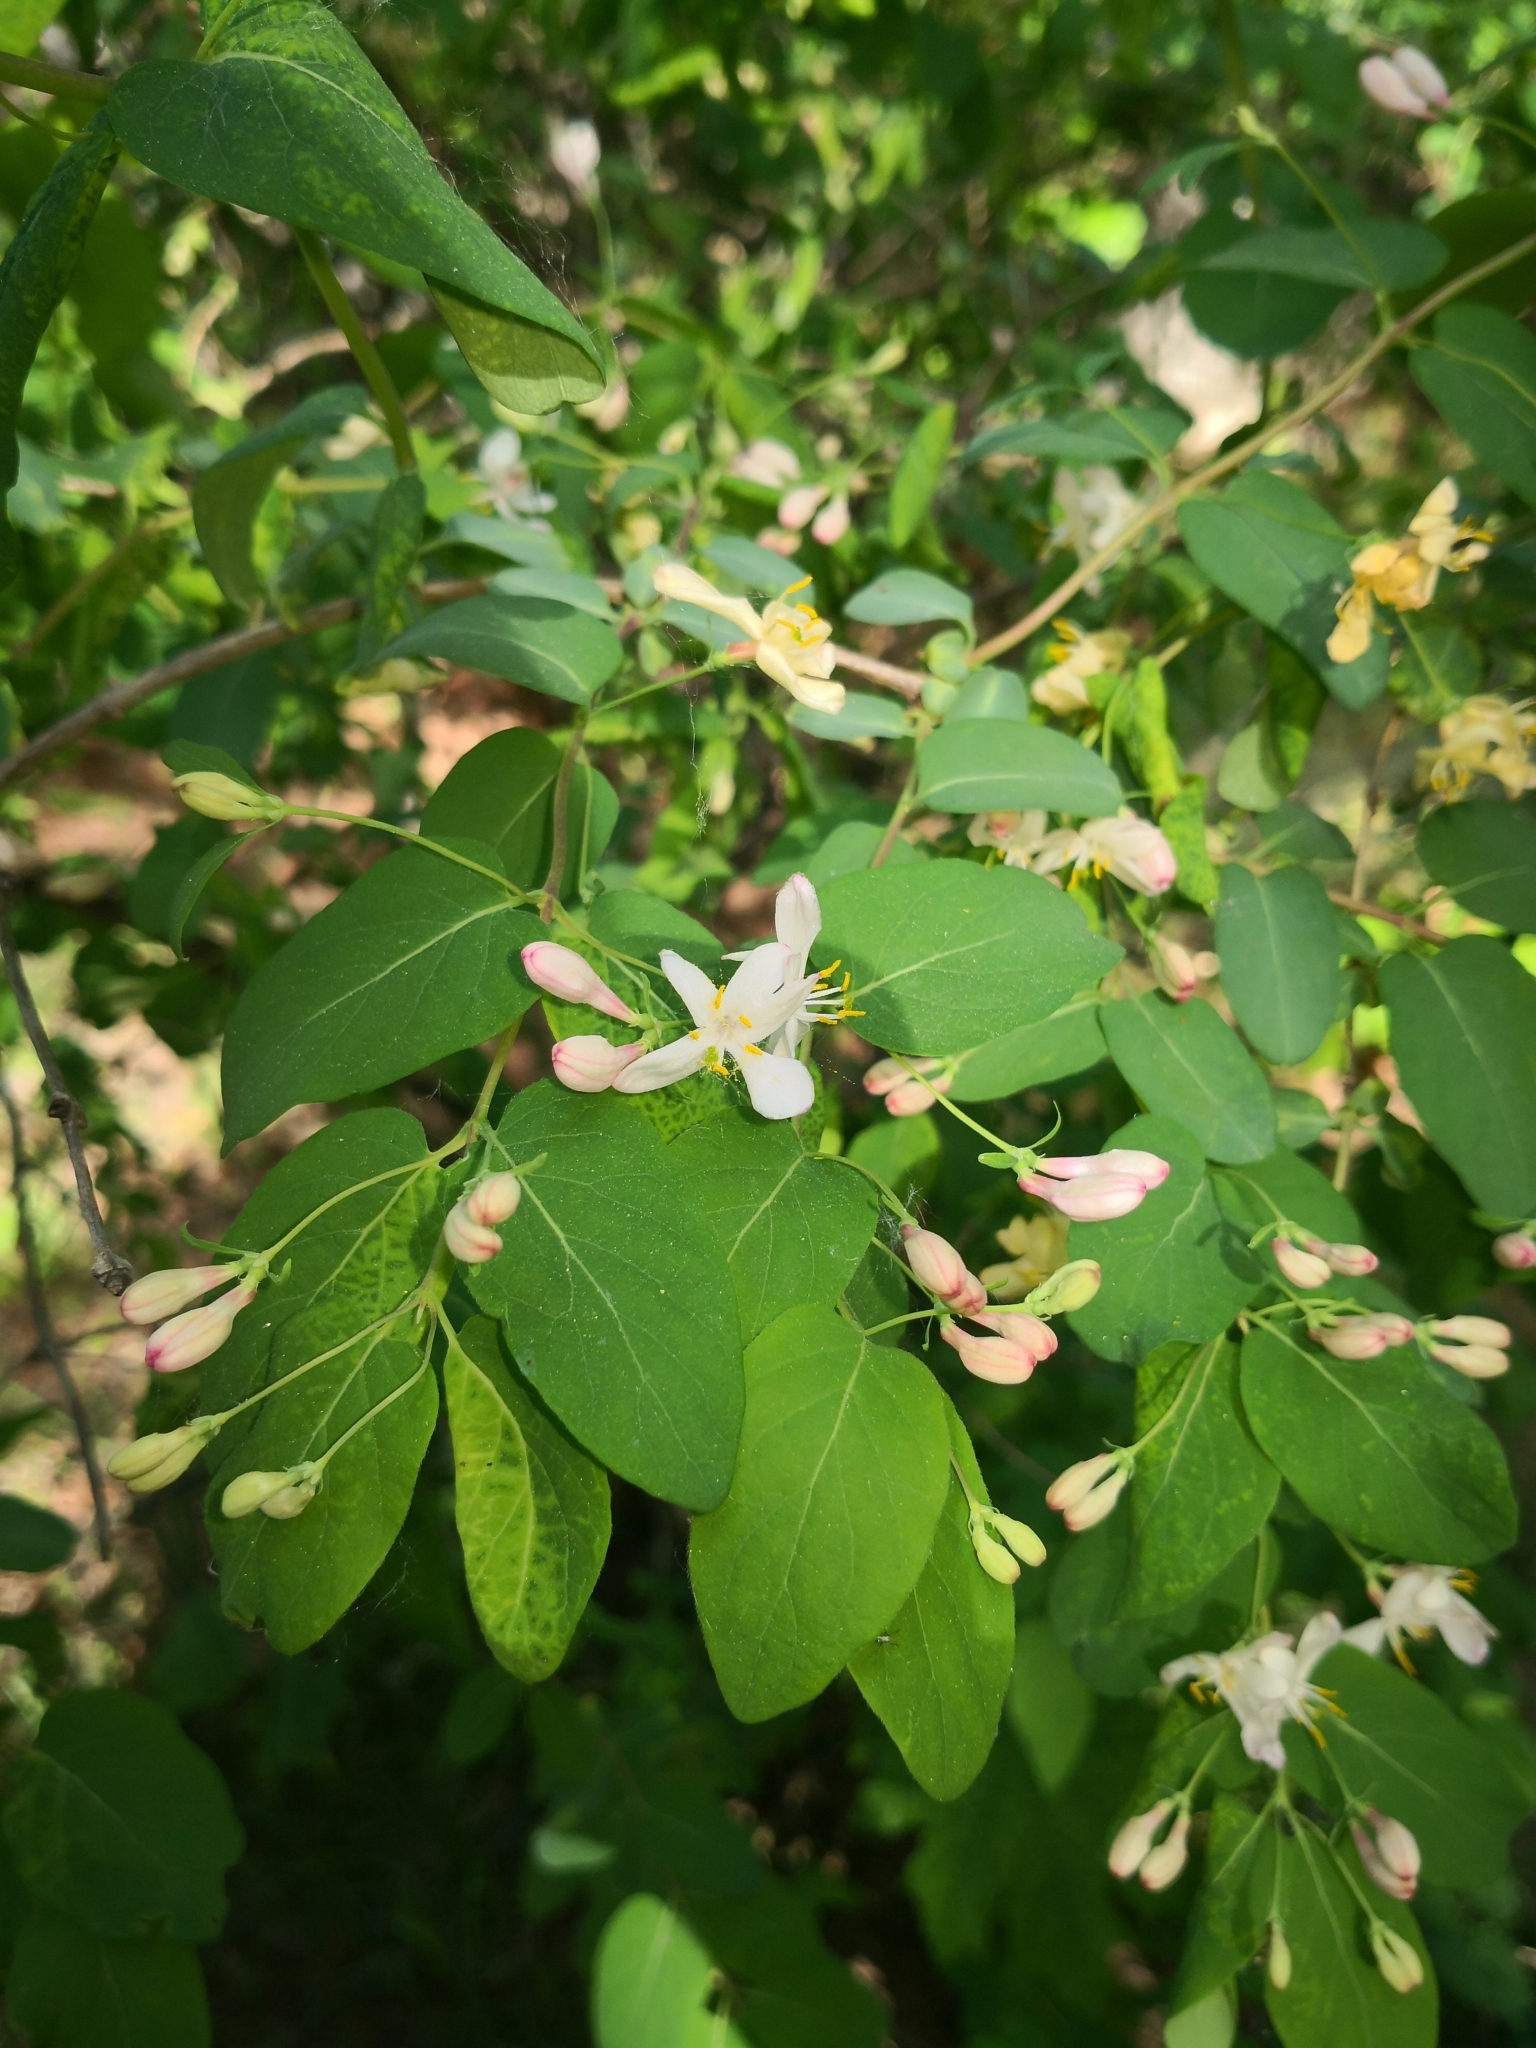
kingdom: Plantae
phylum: Tracheophyta
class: Magnoliopsida
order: Dipsacales
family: Caprifoliaceae
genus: Lonicera
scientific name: Lonicera tatarica
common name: Tatarian honeysuckle
